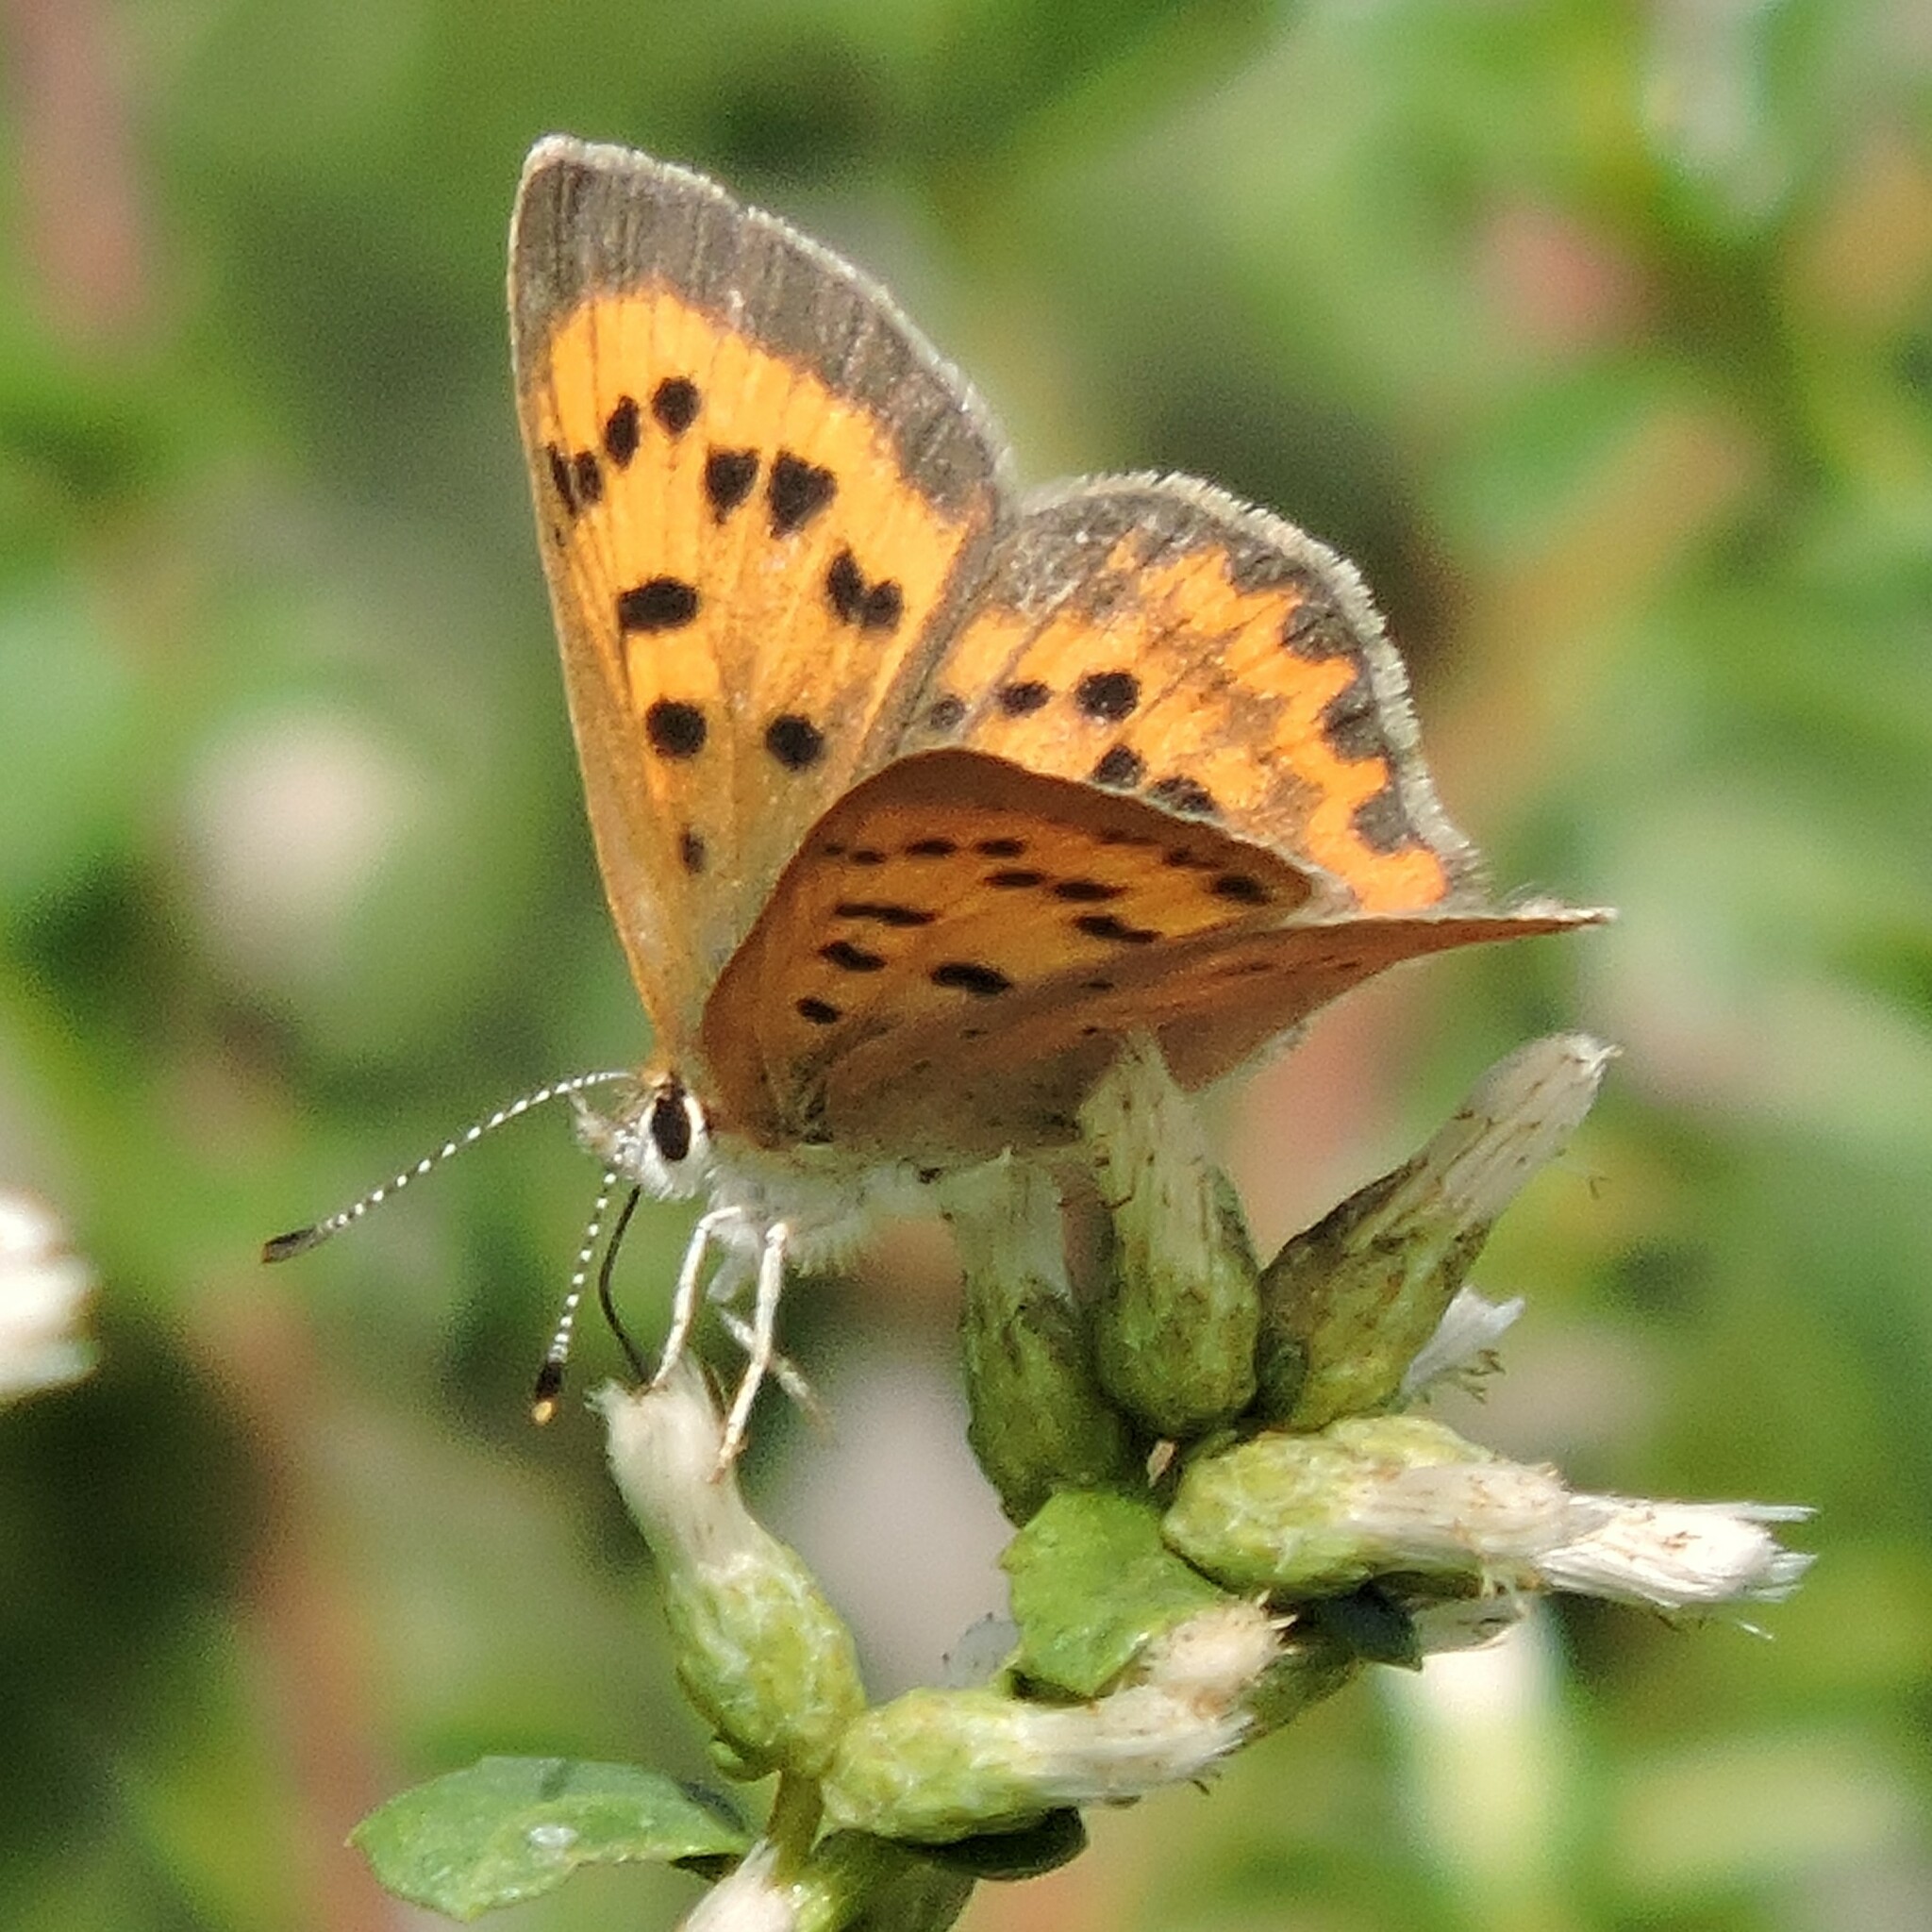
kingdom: Animalia
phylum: Arthropoda
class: Insecta
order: Lepidoptera
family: Lycaenidae
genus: Tharsalea
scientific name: Tharsalea helloides
